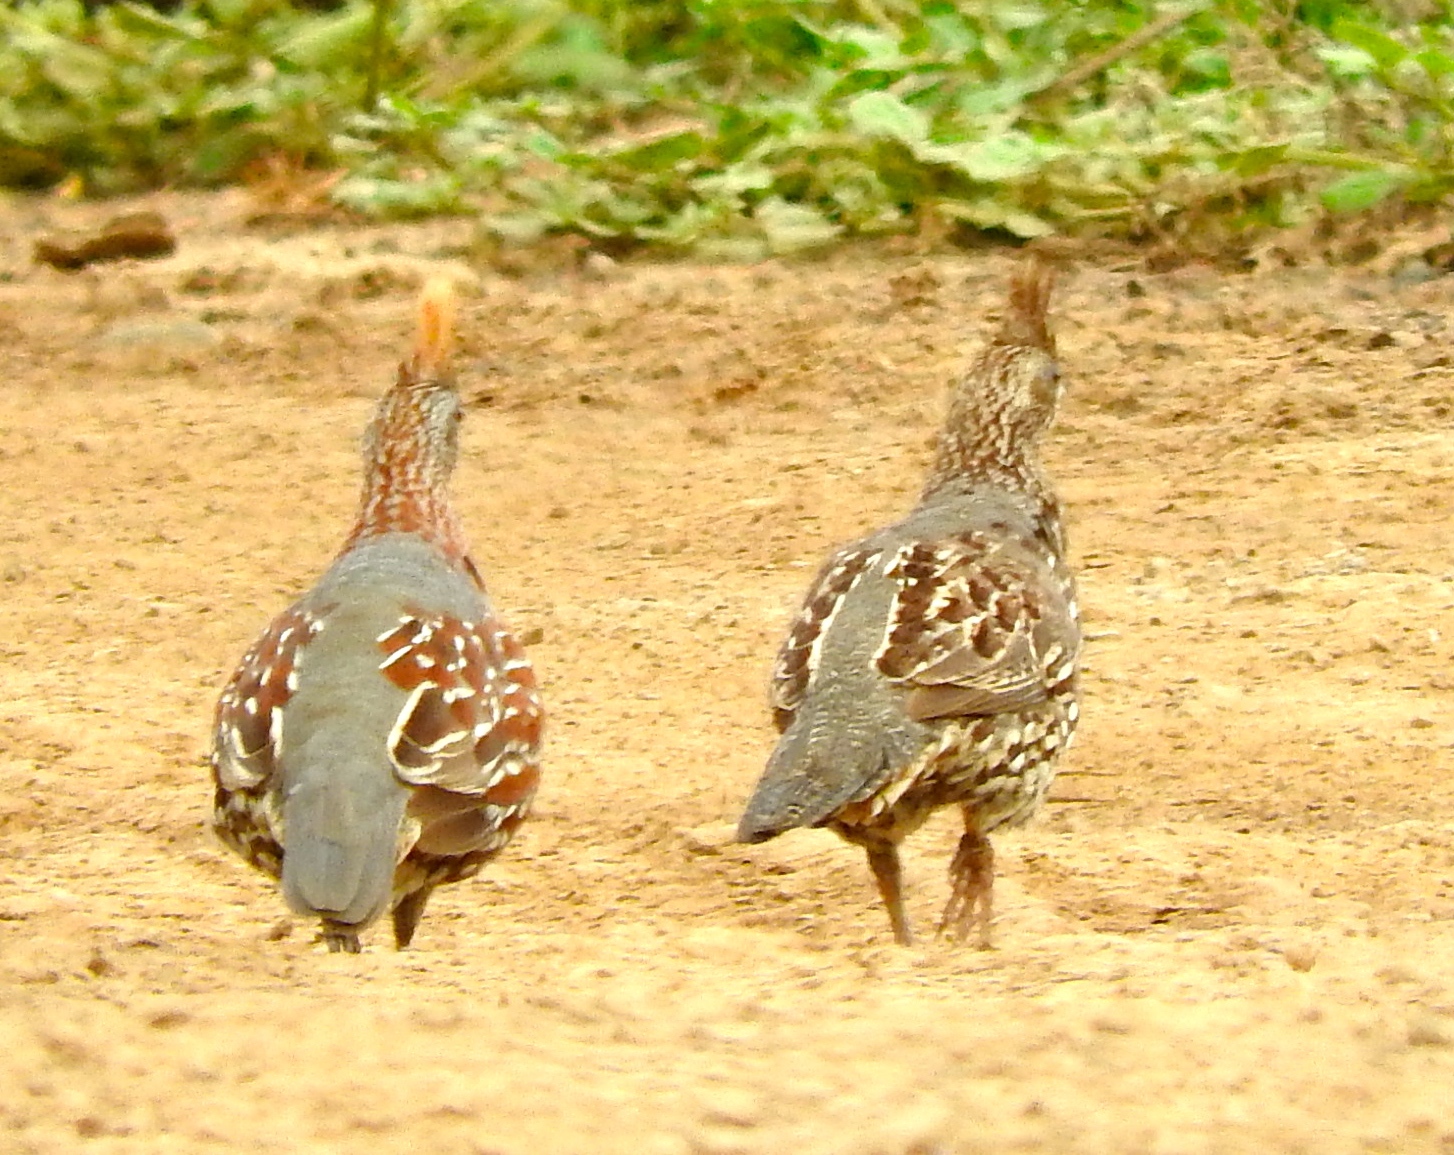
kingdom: Animalia
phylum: Chordata
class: Aves
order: Galliformes
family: Odontophoridae
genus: Callipepla
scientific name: Callipepla douglasii
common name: Elegant quail
